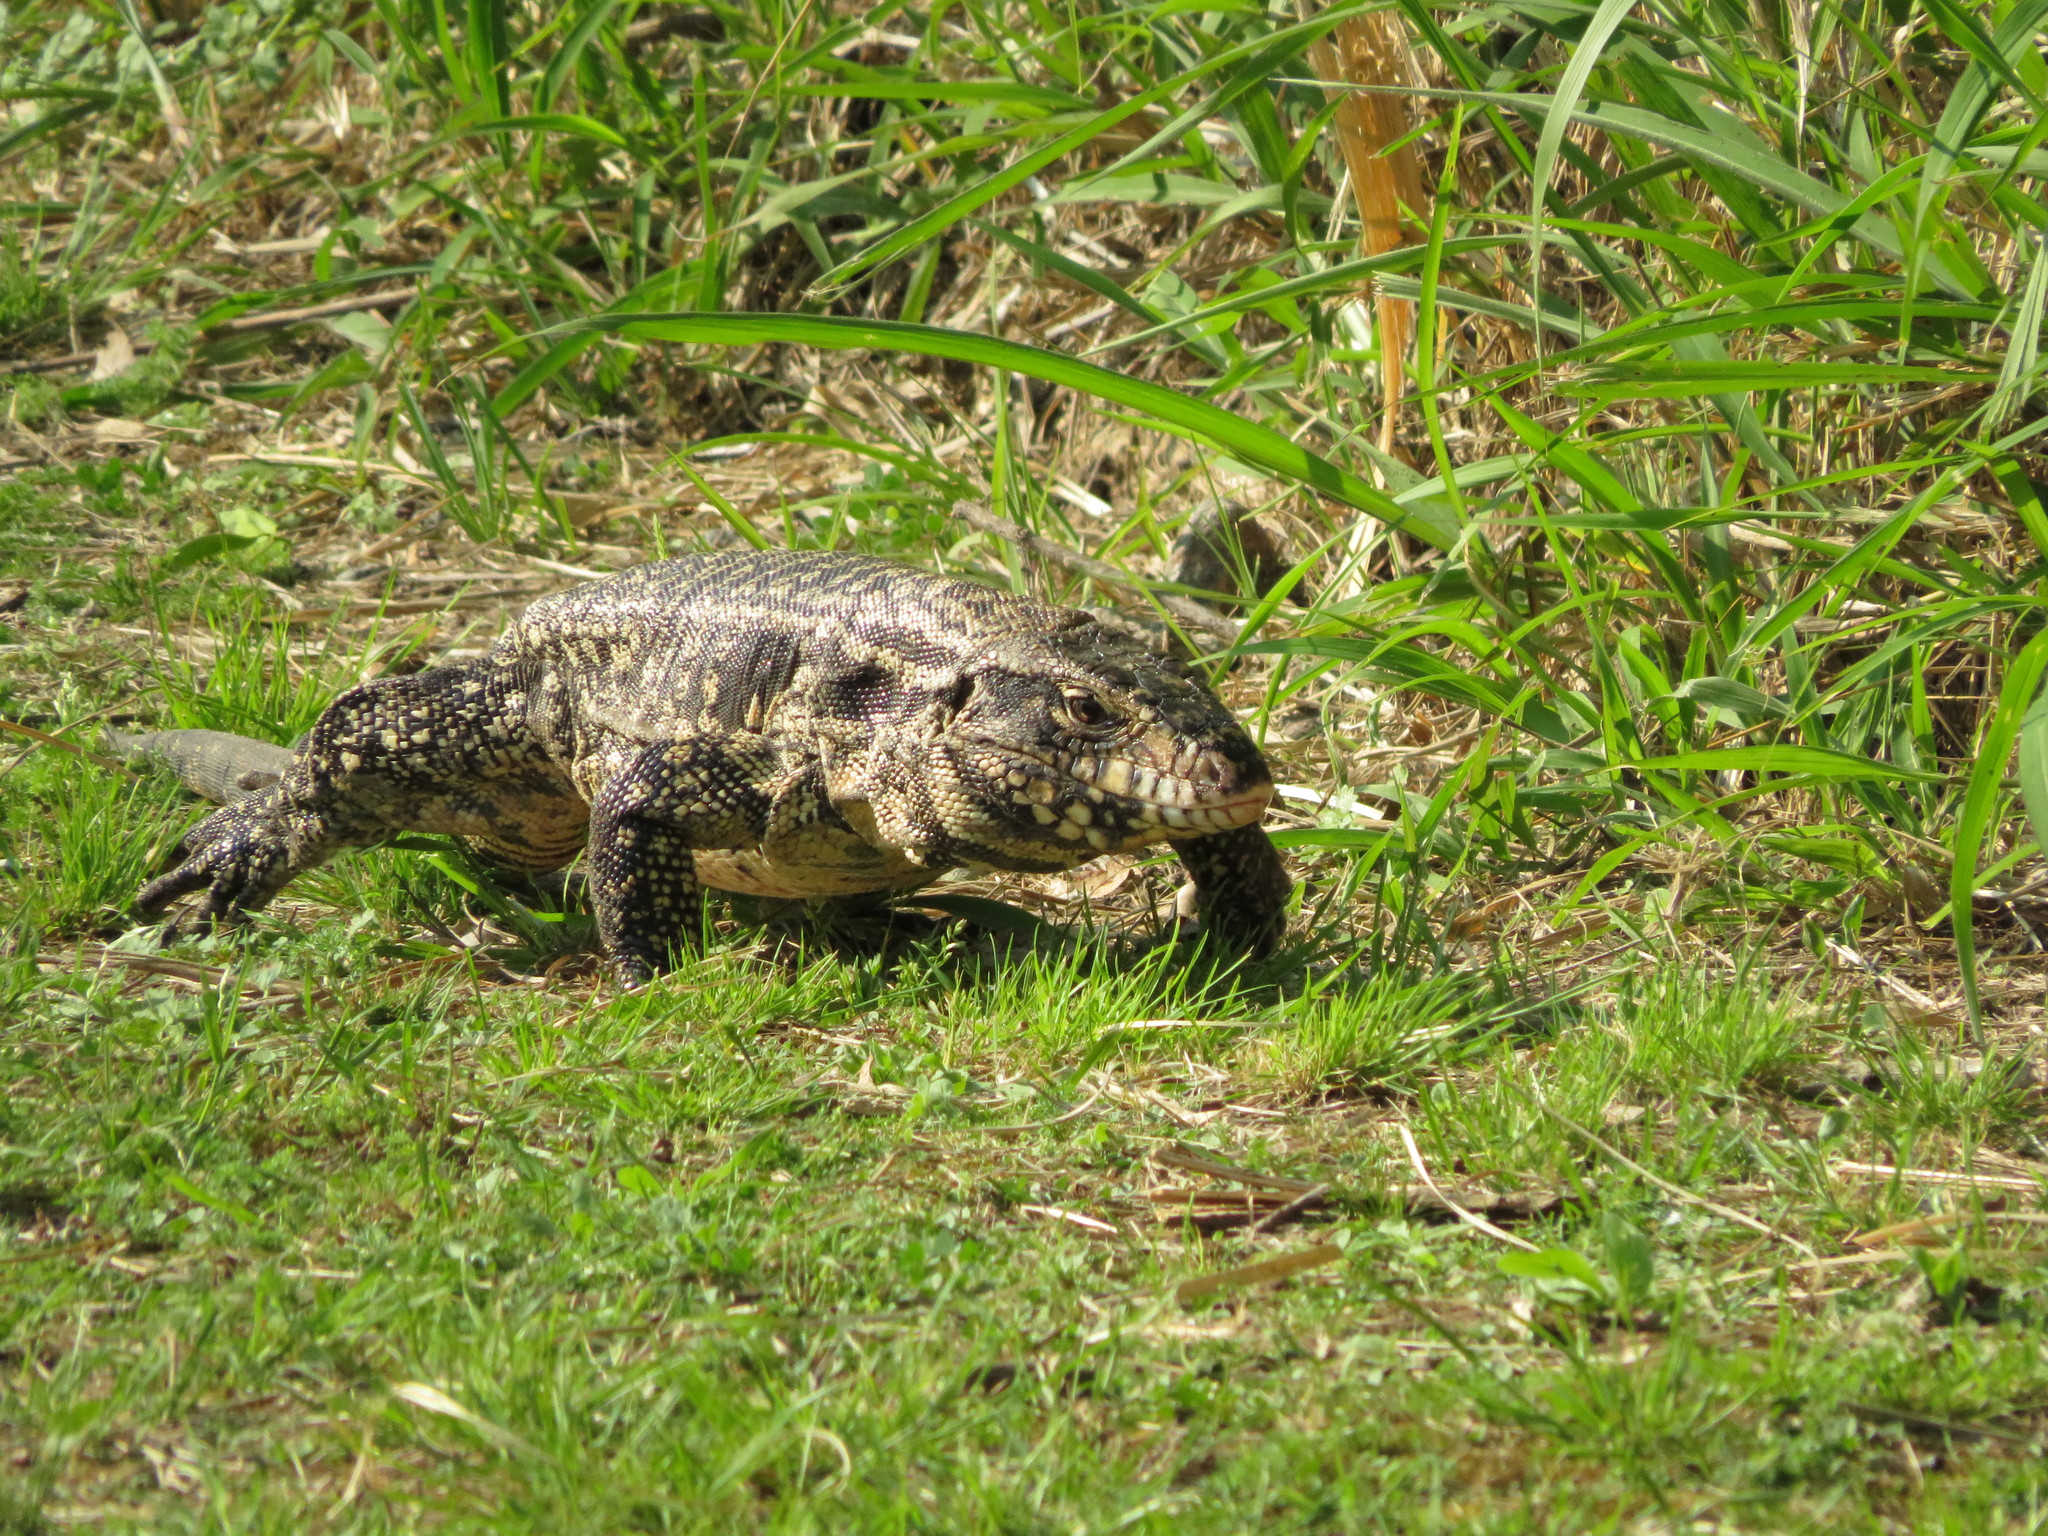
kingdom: Animalia
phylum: Chordata
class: Squamata
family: Teiidae
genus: Salvator
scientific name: Salvator merianae
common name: Argentine black and white tegu
